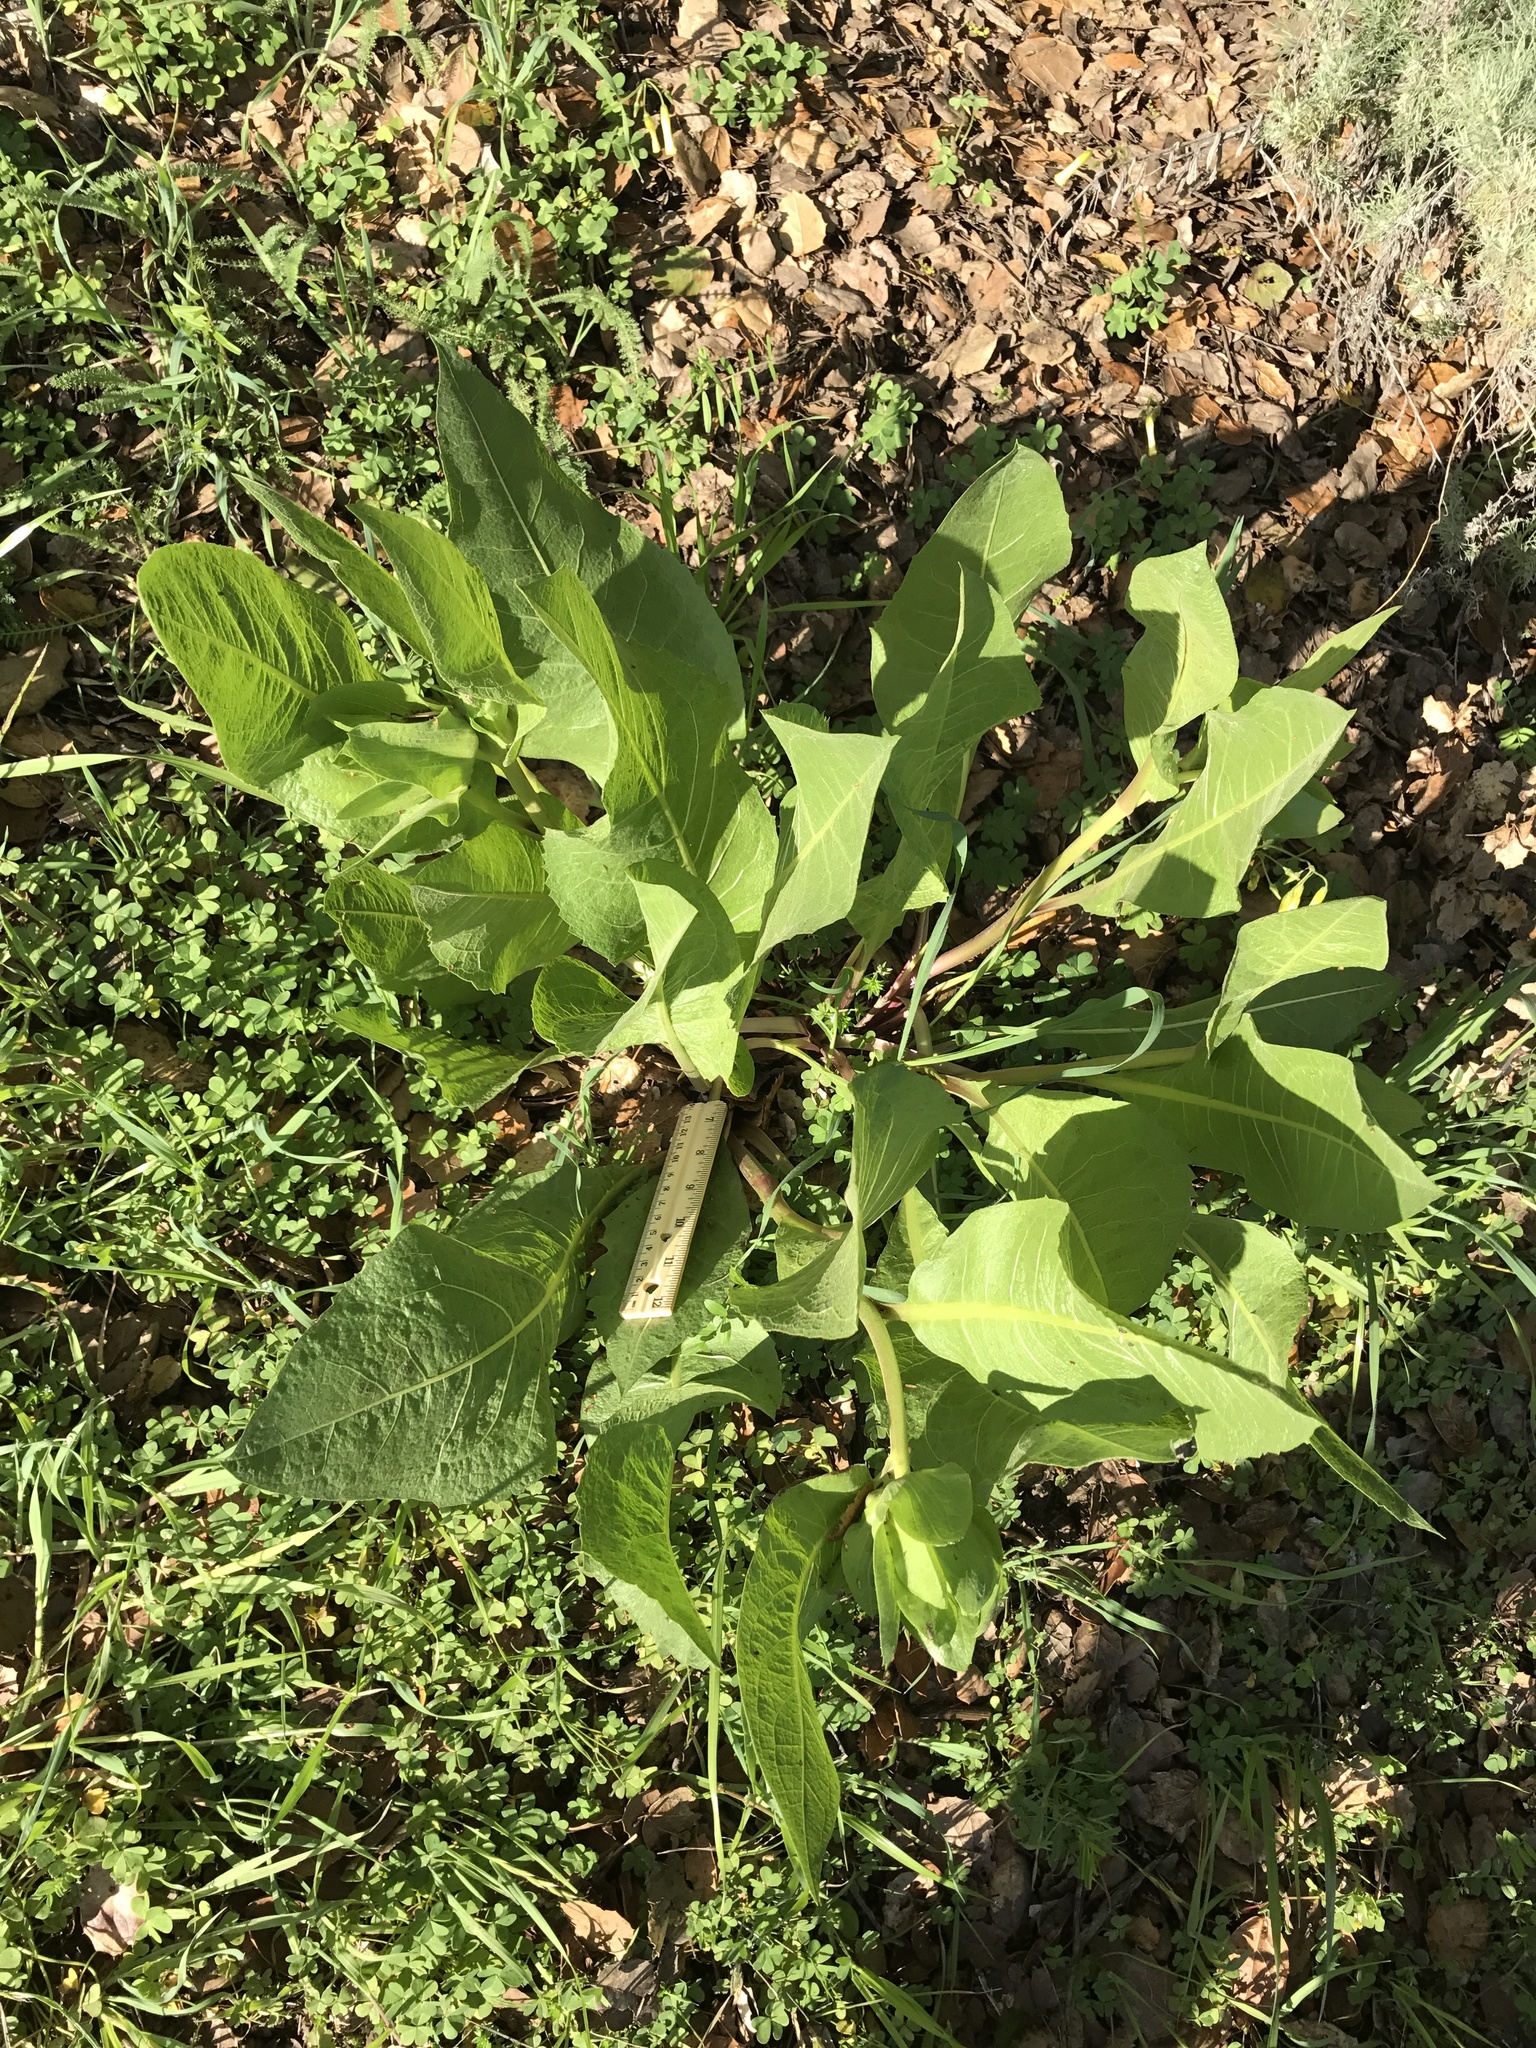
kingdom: Plantae
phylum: Tracheophyta
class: Magnoliopsida
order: Asterales
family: Asteraceae
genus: Wyethia
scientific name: Wyethia glabra
